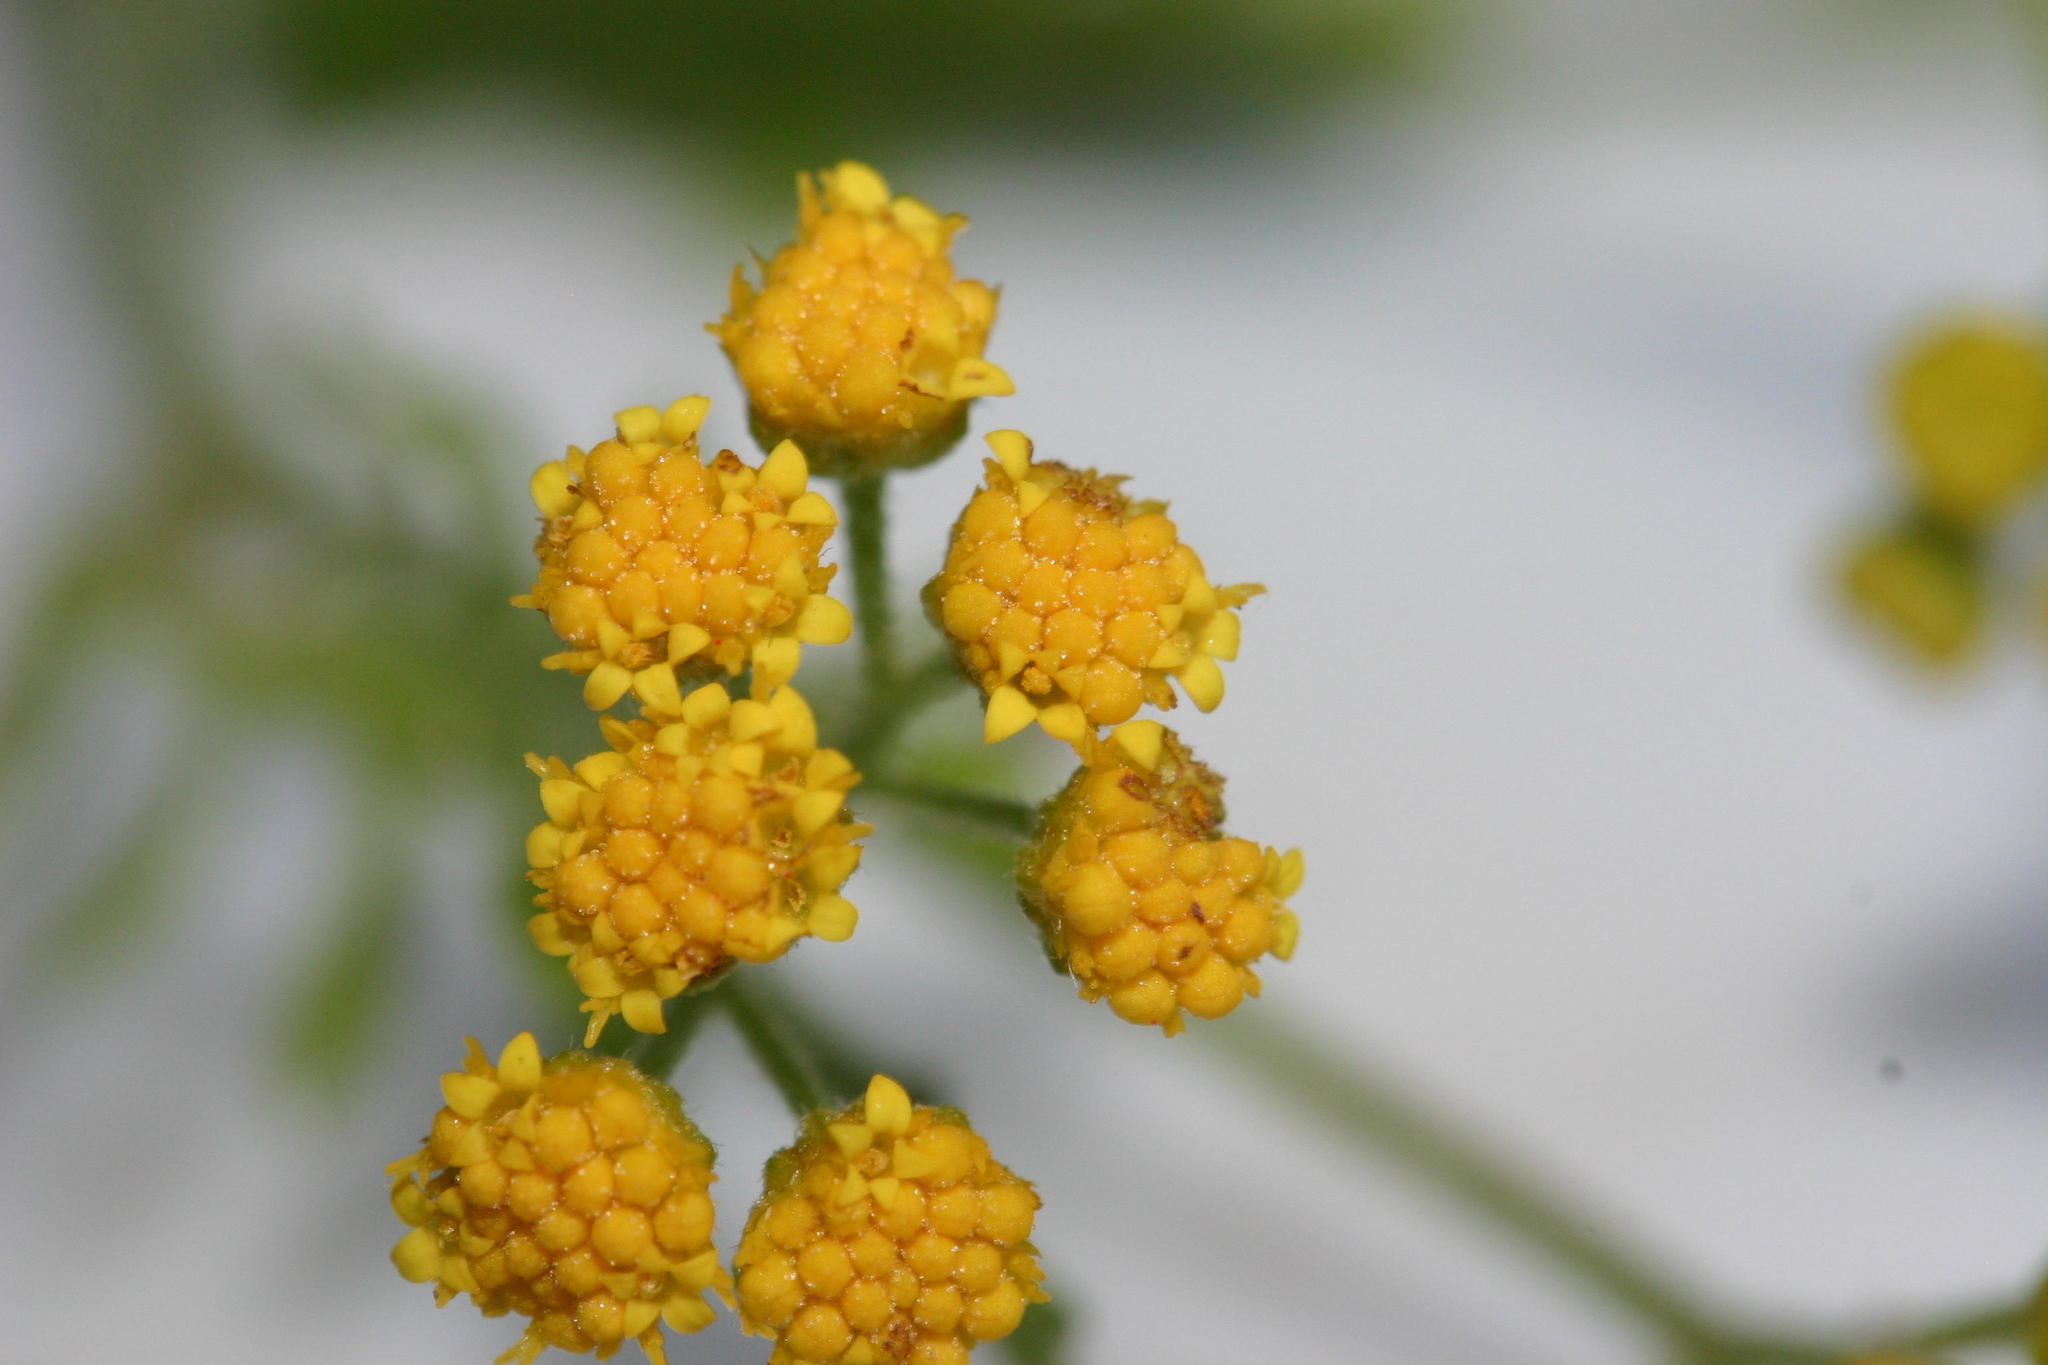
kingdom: Plantae
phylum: Tracheophyta
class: Magnoliopsida
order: Asterales
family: Asteraceae
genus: Hippia
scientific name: Hippia frutescens
